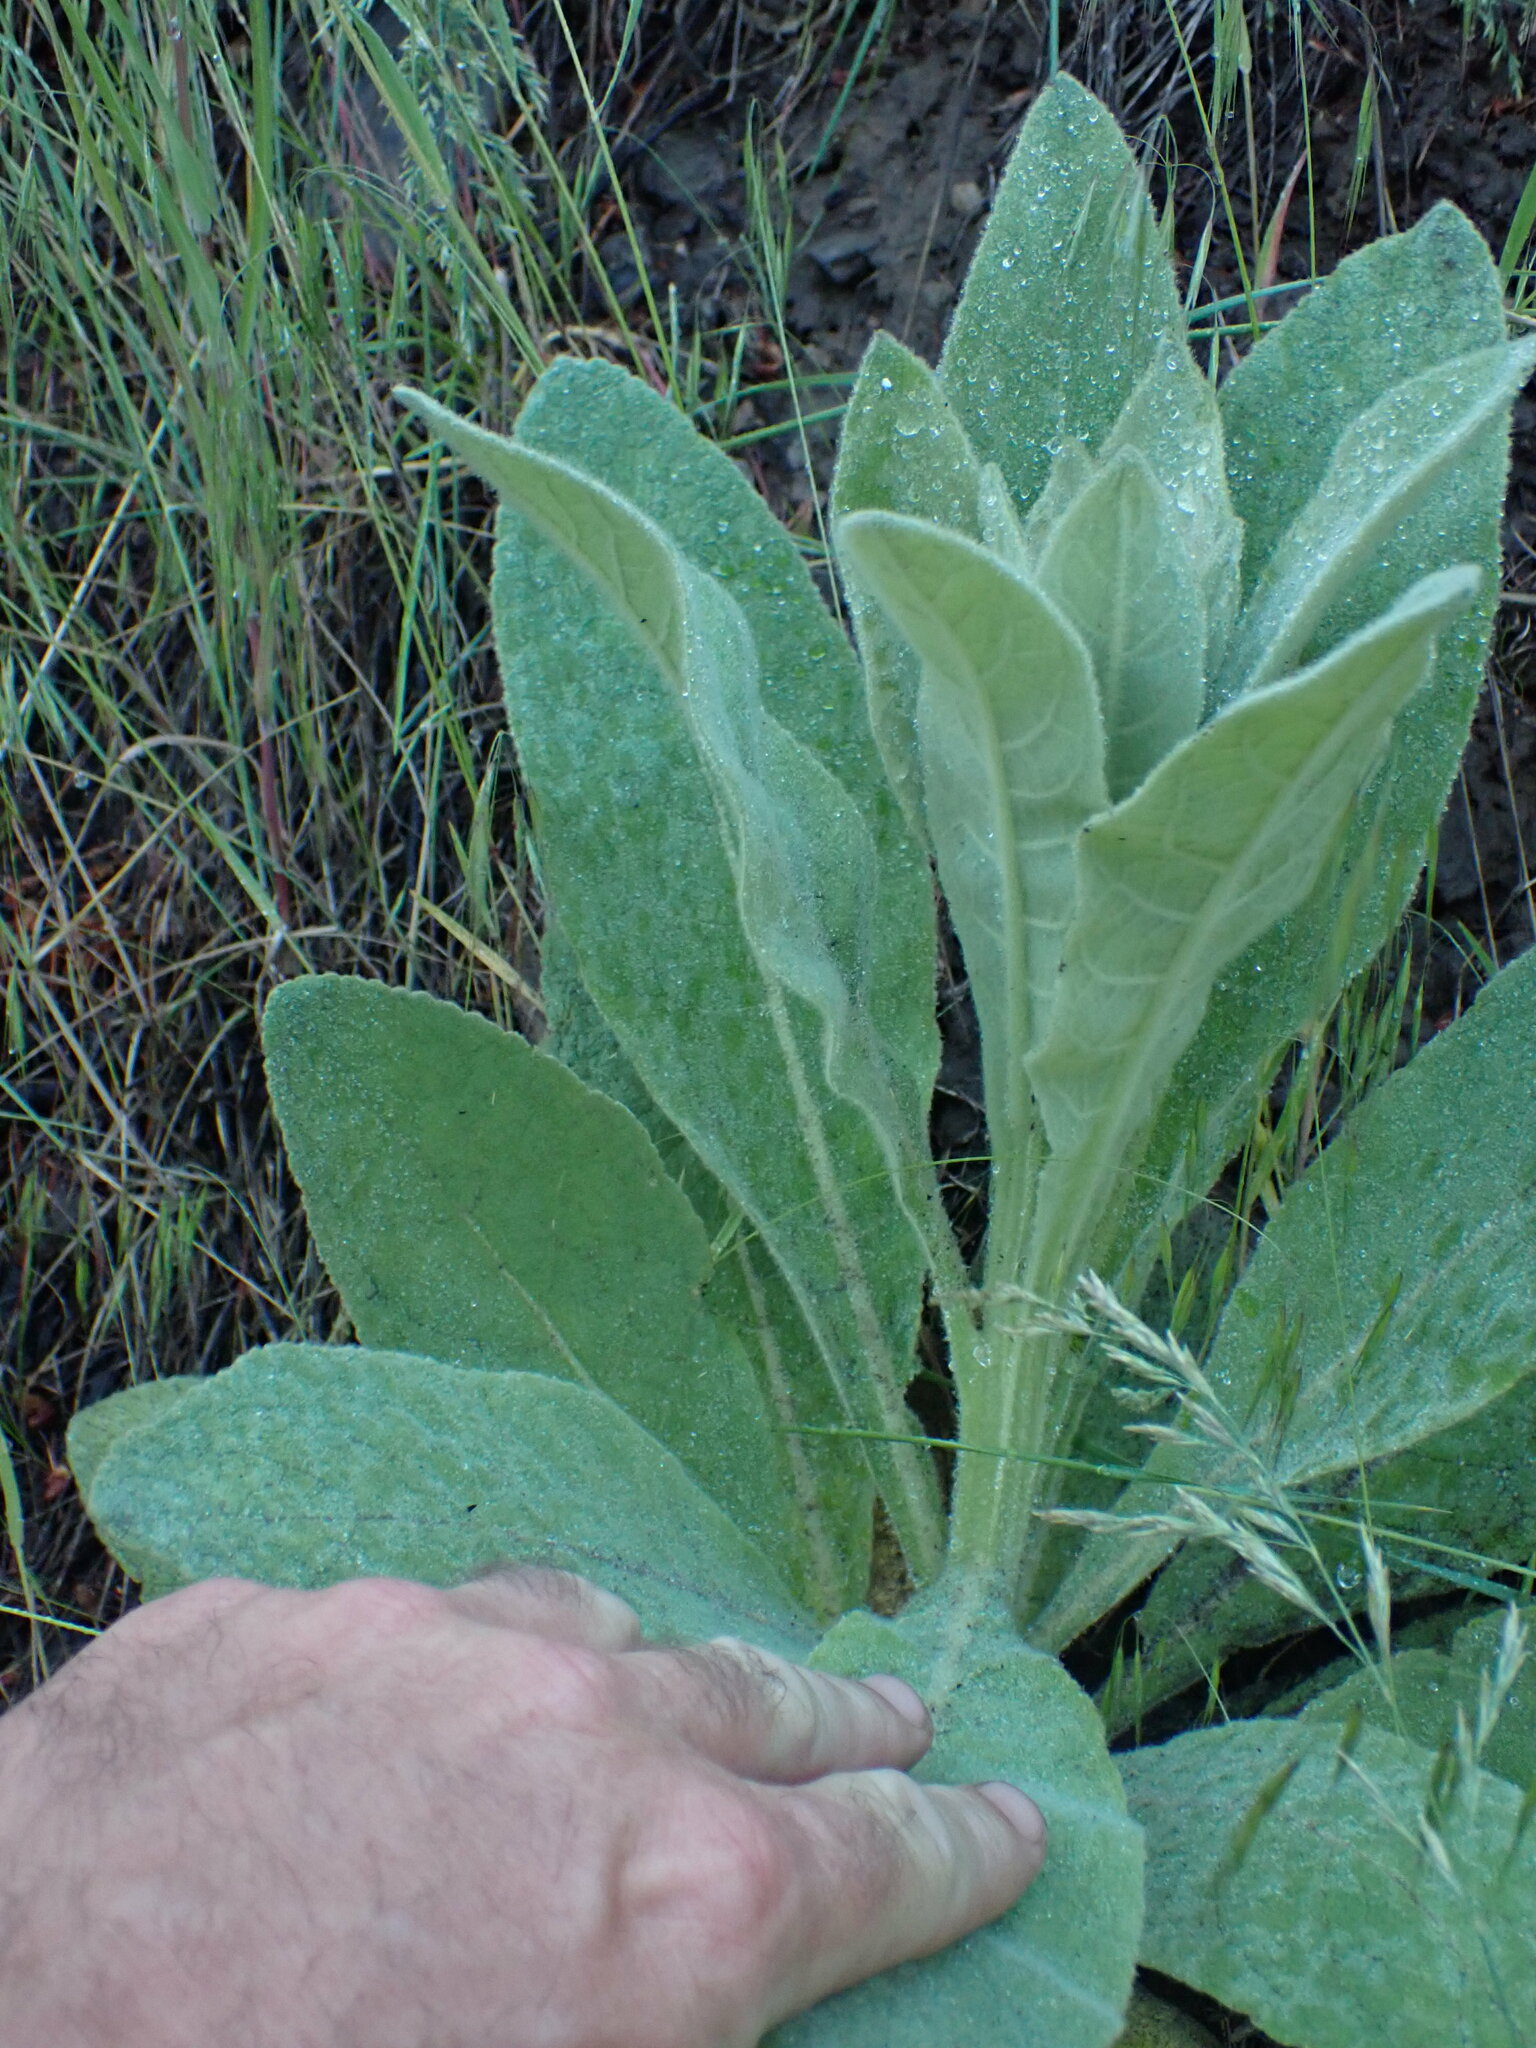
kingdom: Plantae
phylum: Tracheophyta
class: Magnoliopsida
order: Lamiales
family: Scrophulariaceae
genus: Verbascum
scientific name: Verbascum thapsus
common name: Common mullein
